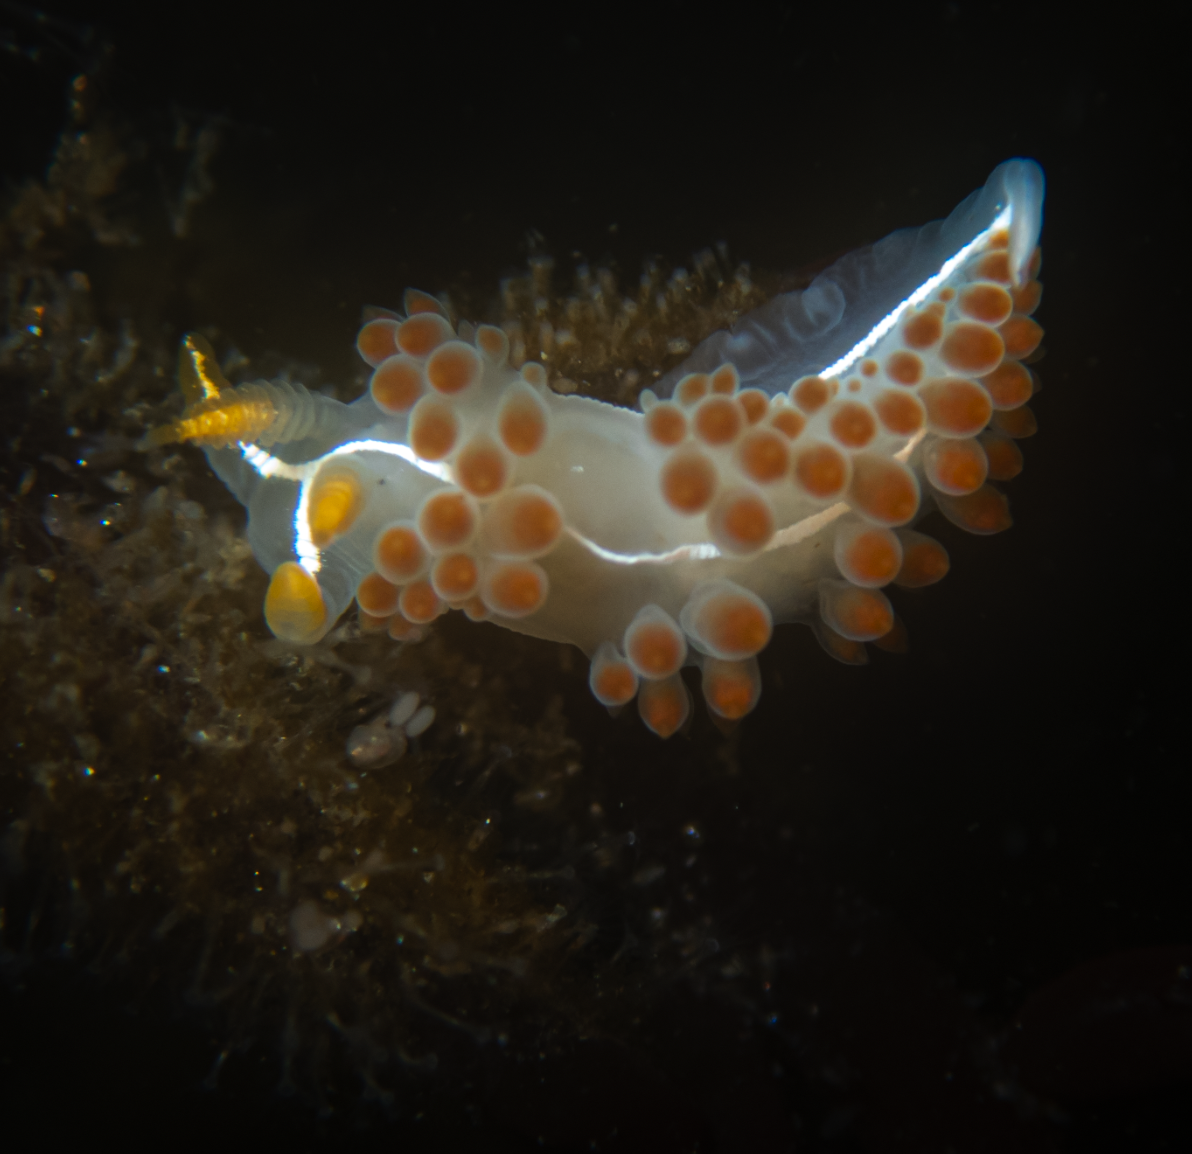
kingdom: Animalia
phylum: Mollusca
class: Gastropoda
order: Nudibranchia
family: Coryphellidae
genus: Coryphella
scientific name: Coryphella trilineata
